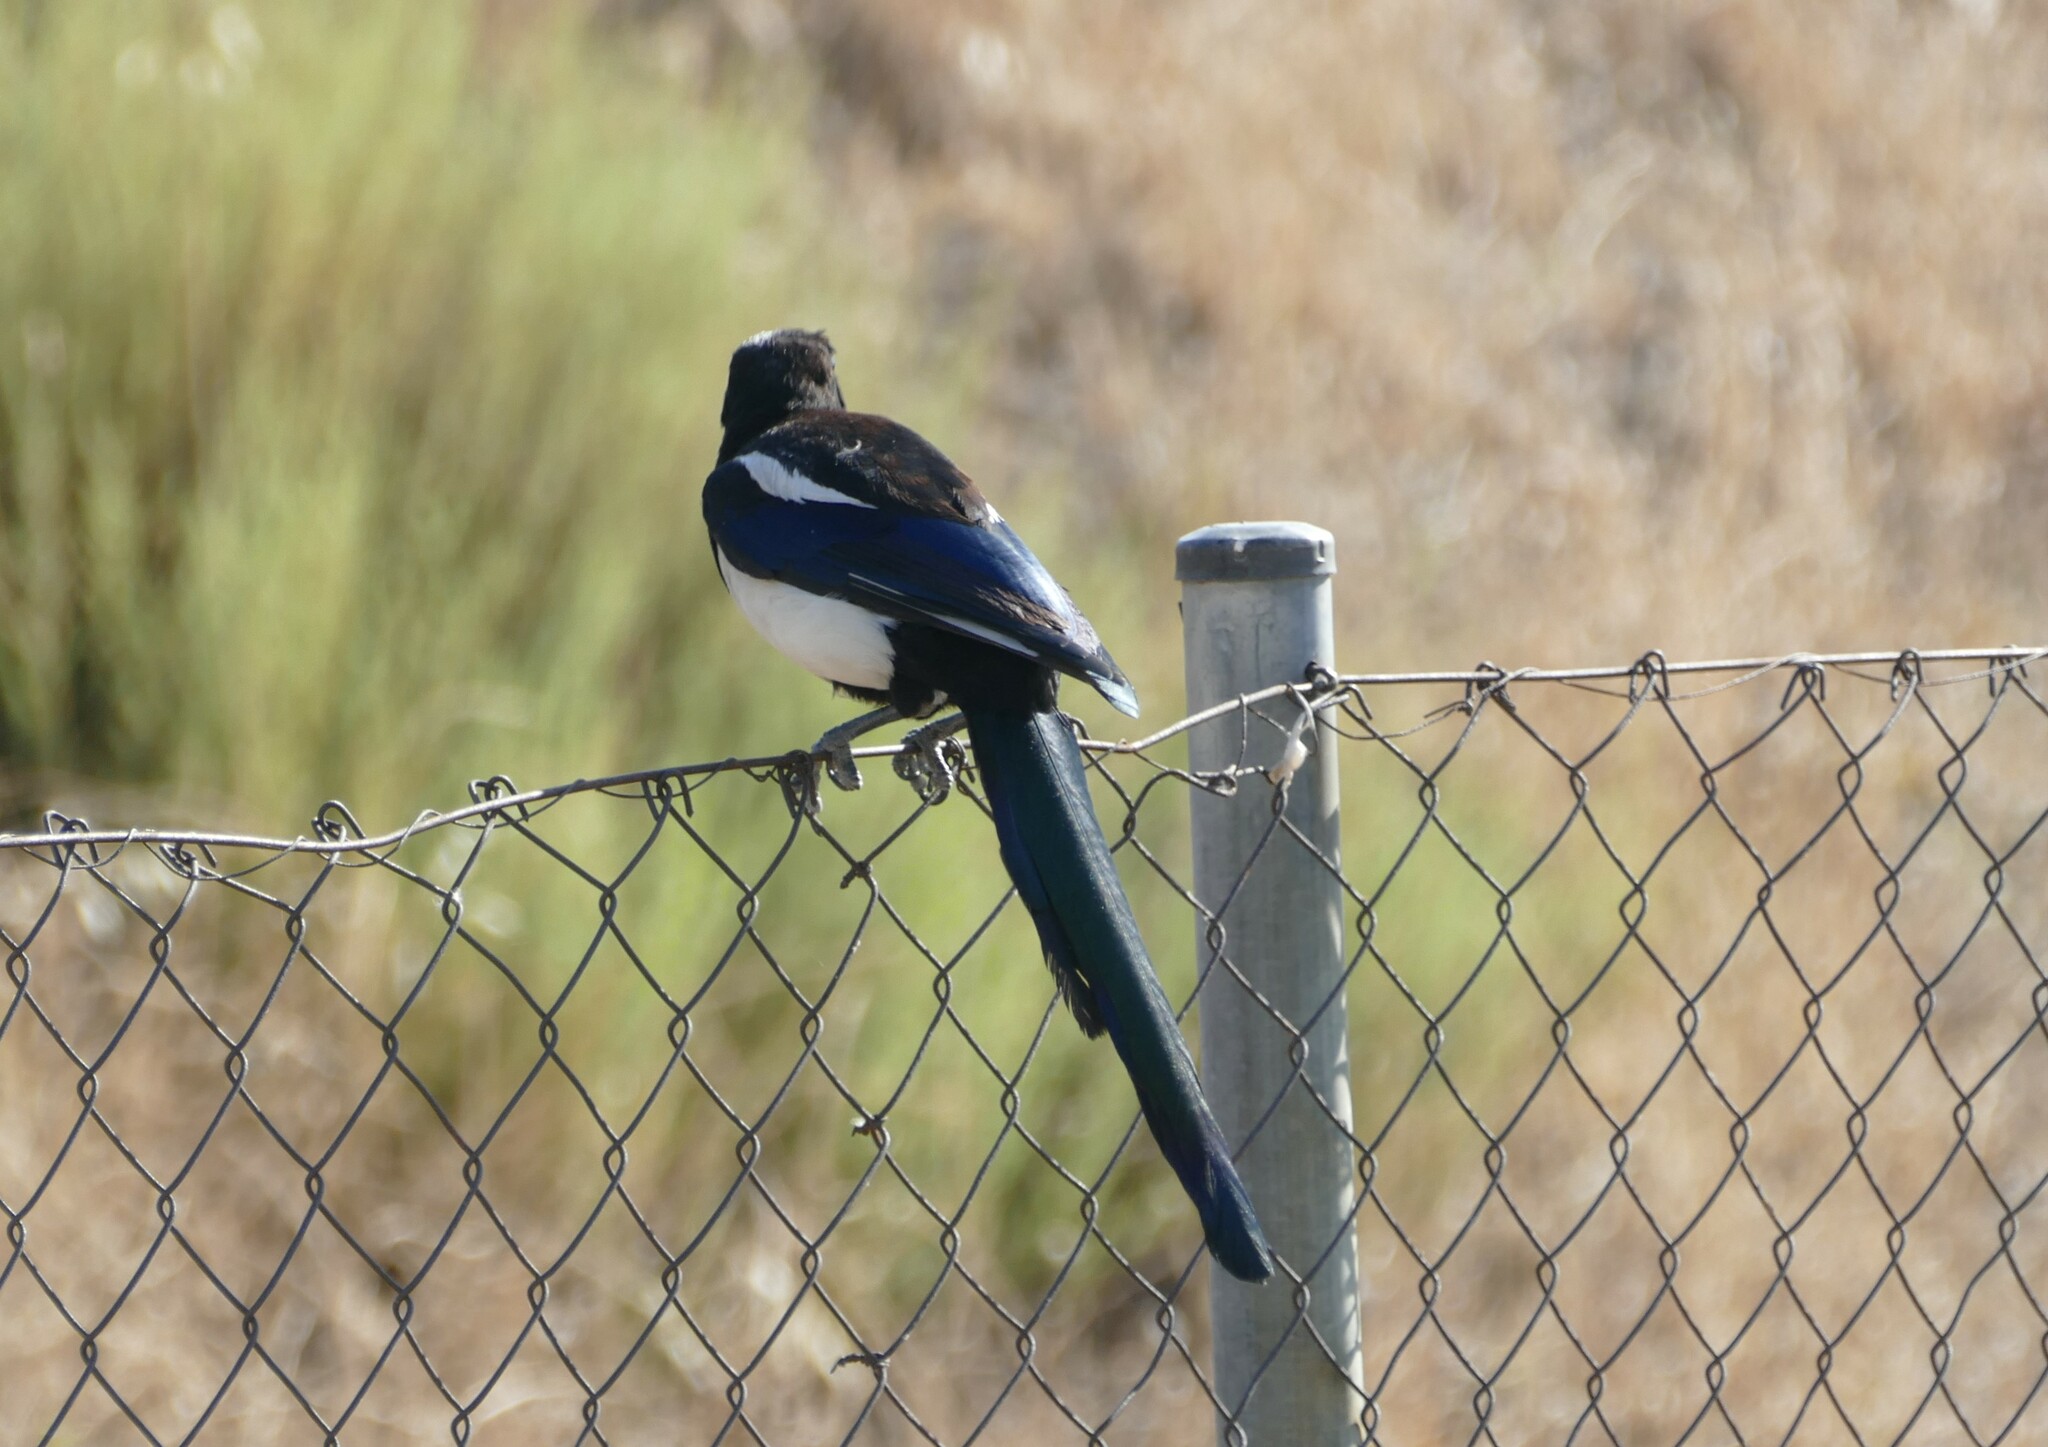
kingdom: Animalia
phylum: Chordata
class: Aves
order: Passeriformes
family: Corvidae
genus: Pica
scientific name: Pica pica
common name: Eurasian magpie
